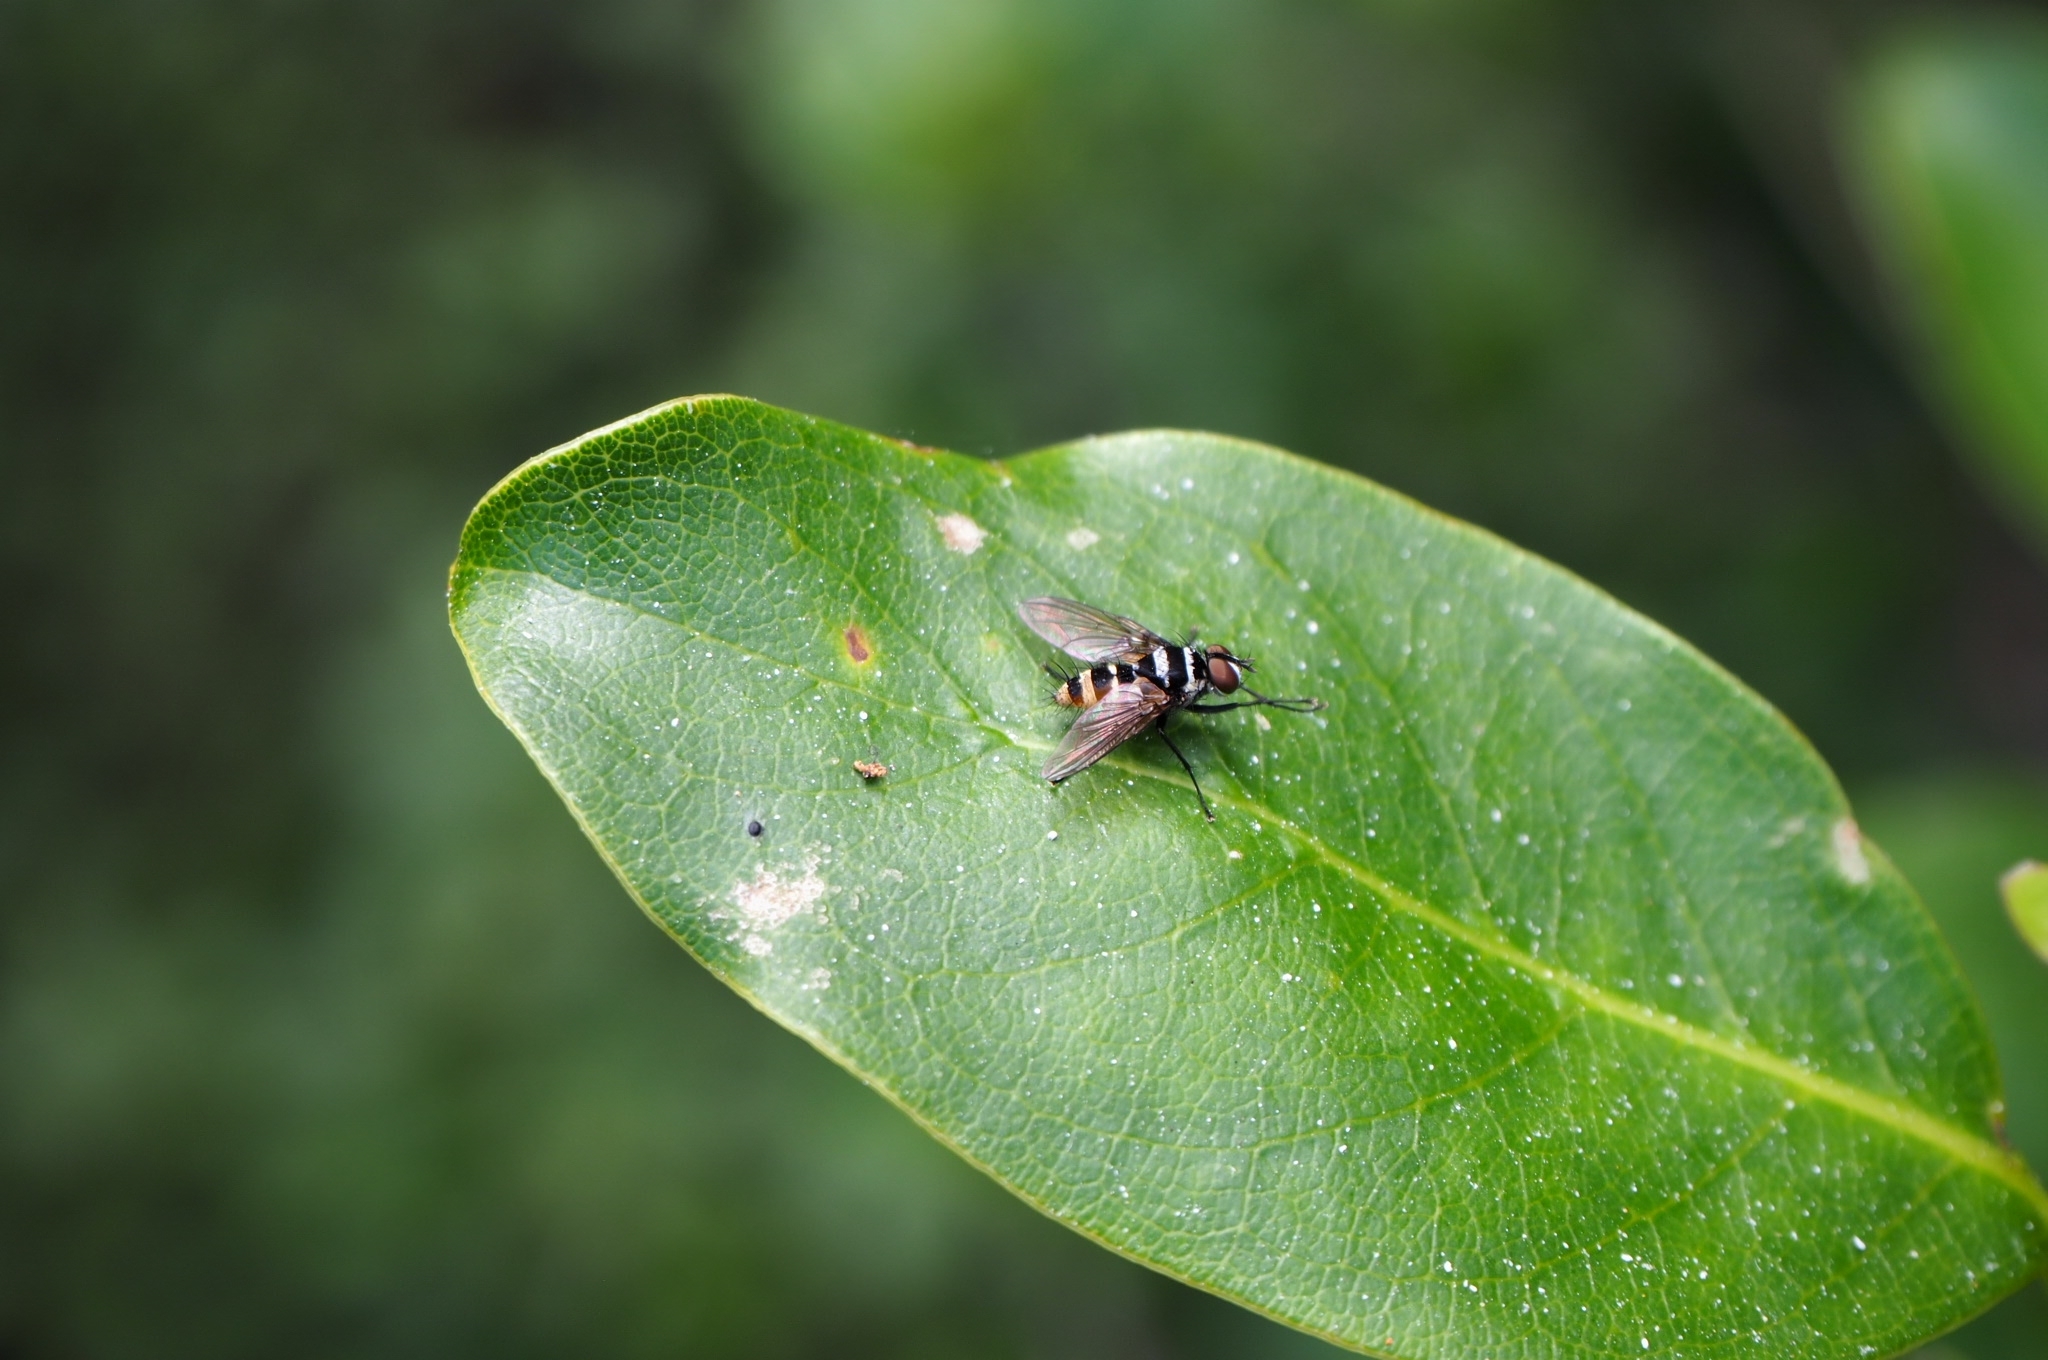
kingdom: Animalia
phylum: Arthropoda
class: Insecta
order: Diptera
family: Tachinidae
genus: Trigonospila
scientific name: Trigonospila brevifacies
